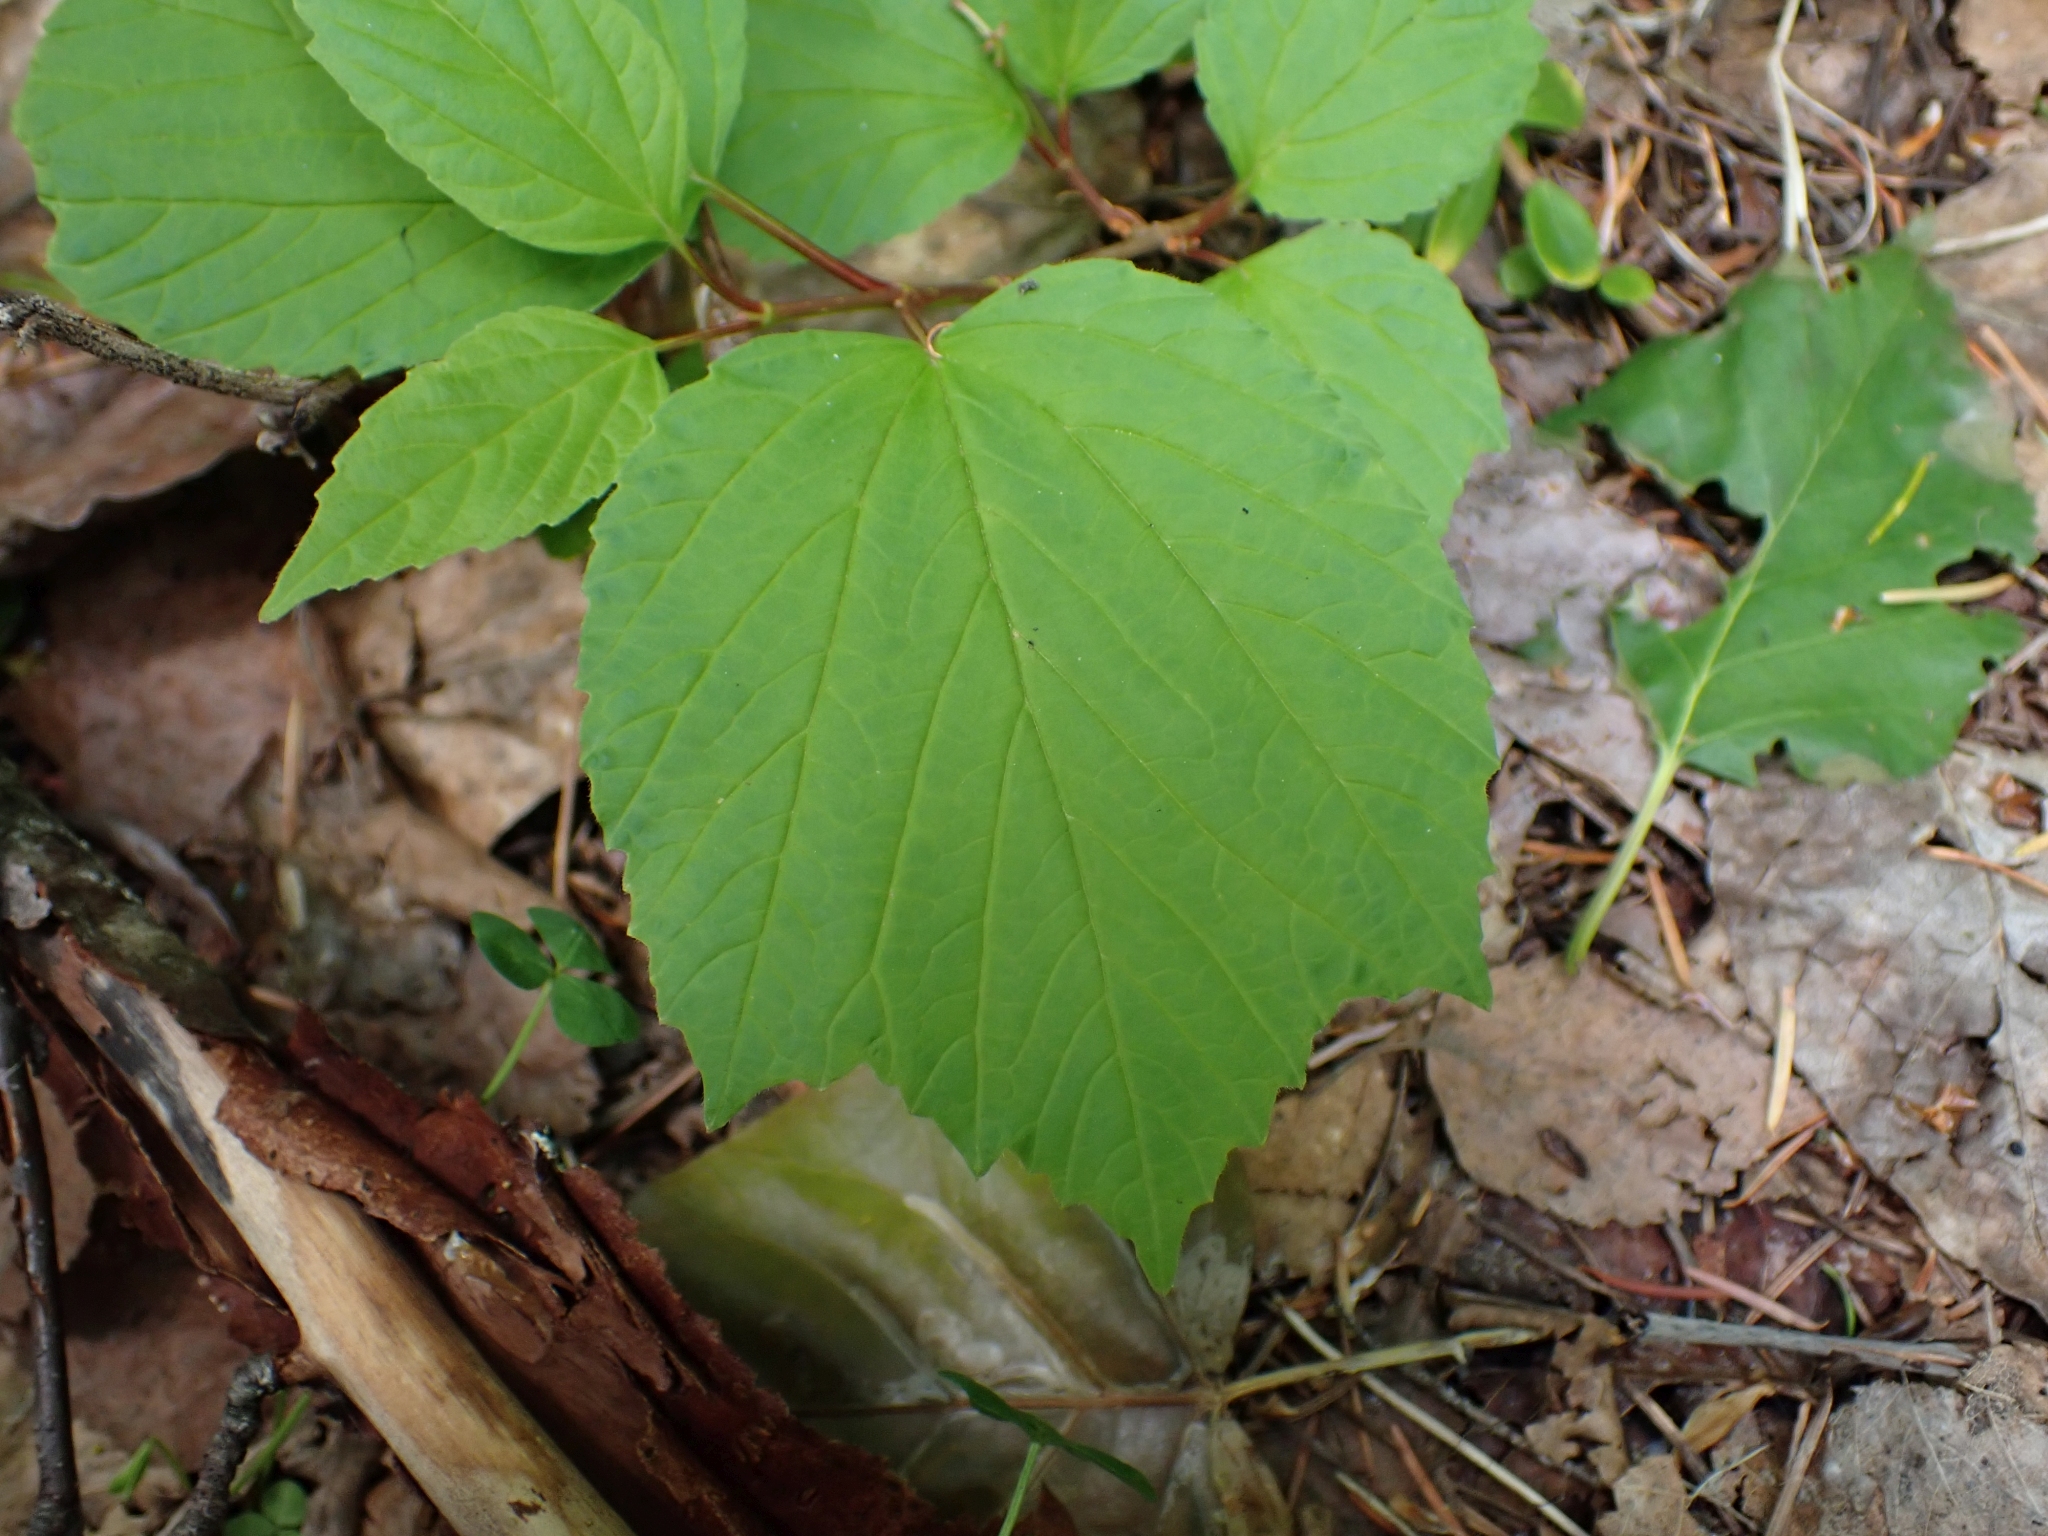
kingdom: Plantae
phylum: Tracheophyta
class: Magnoliopsida
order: Dipsacales
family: Viburnaceae
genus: Viburnum
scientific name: Viburnum edule
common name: Mooseberry
